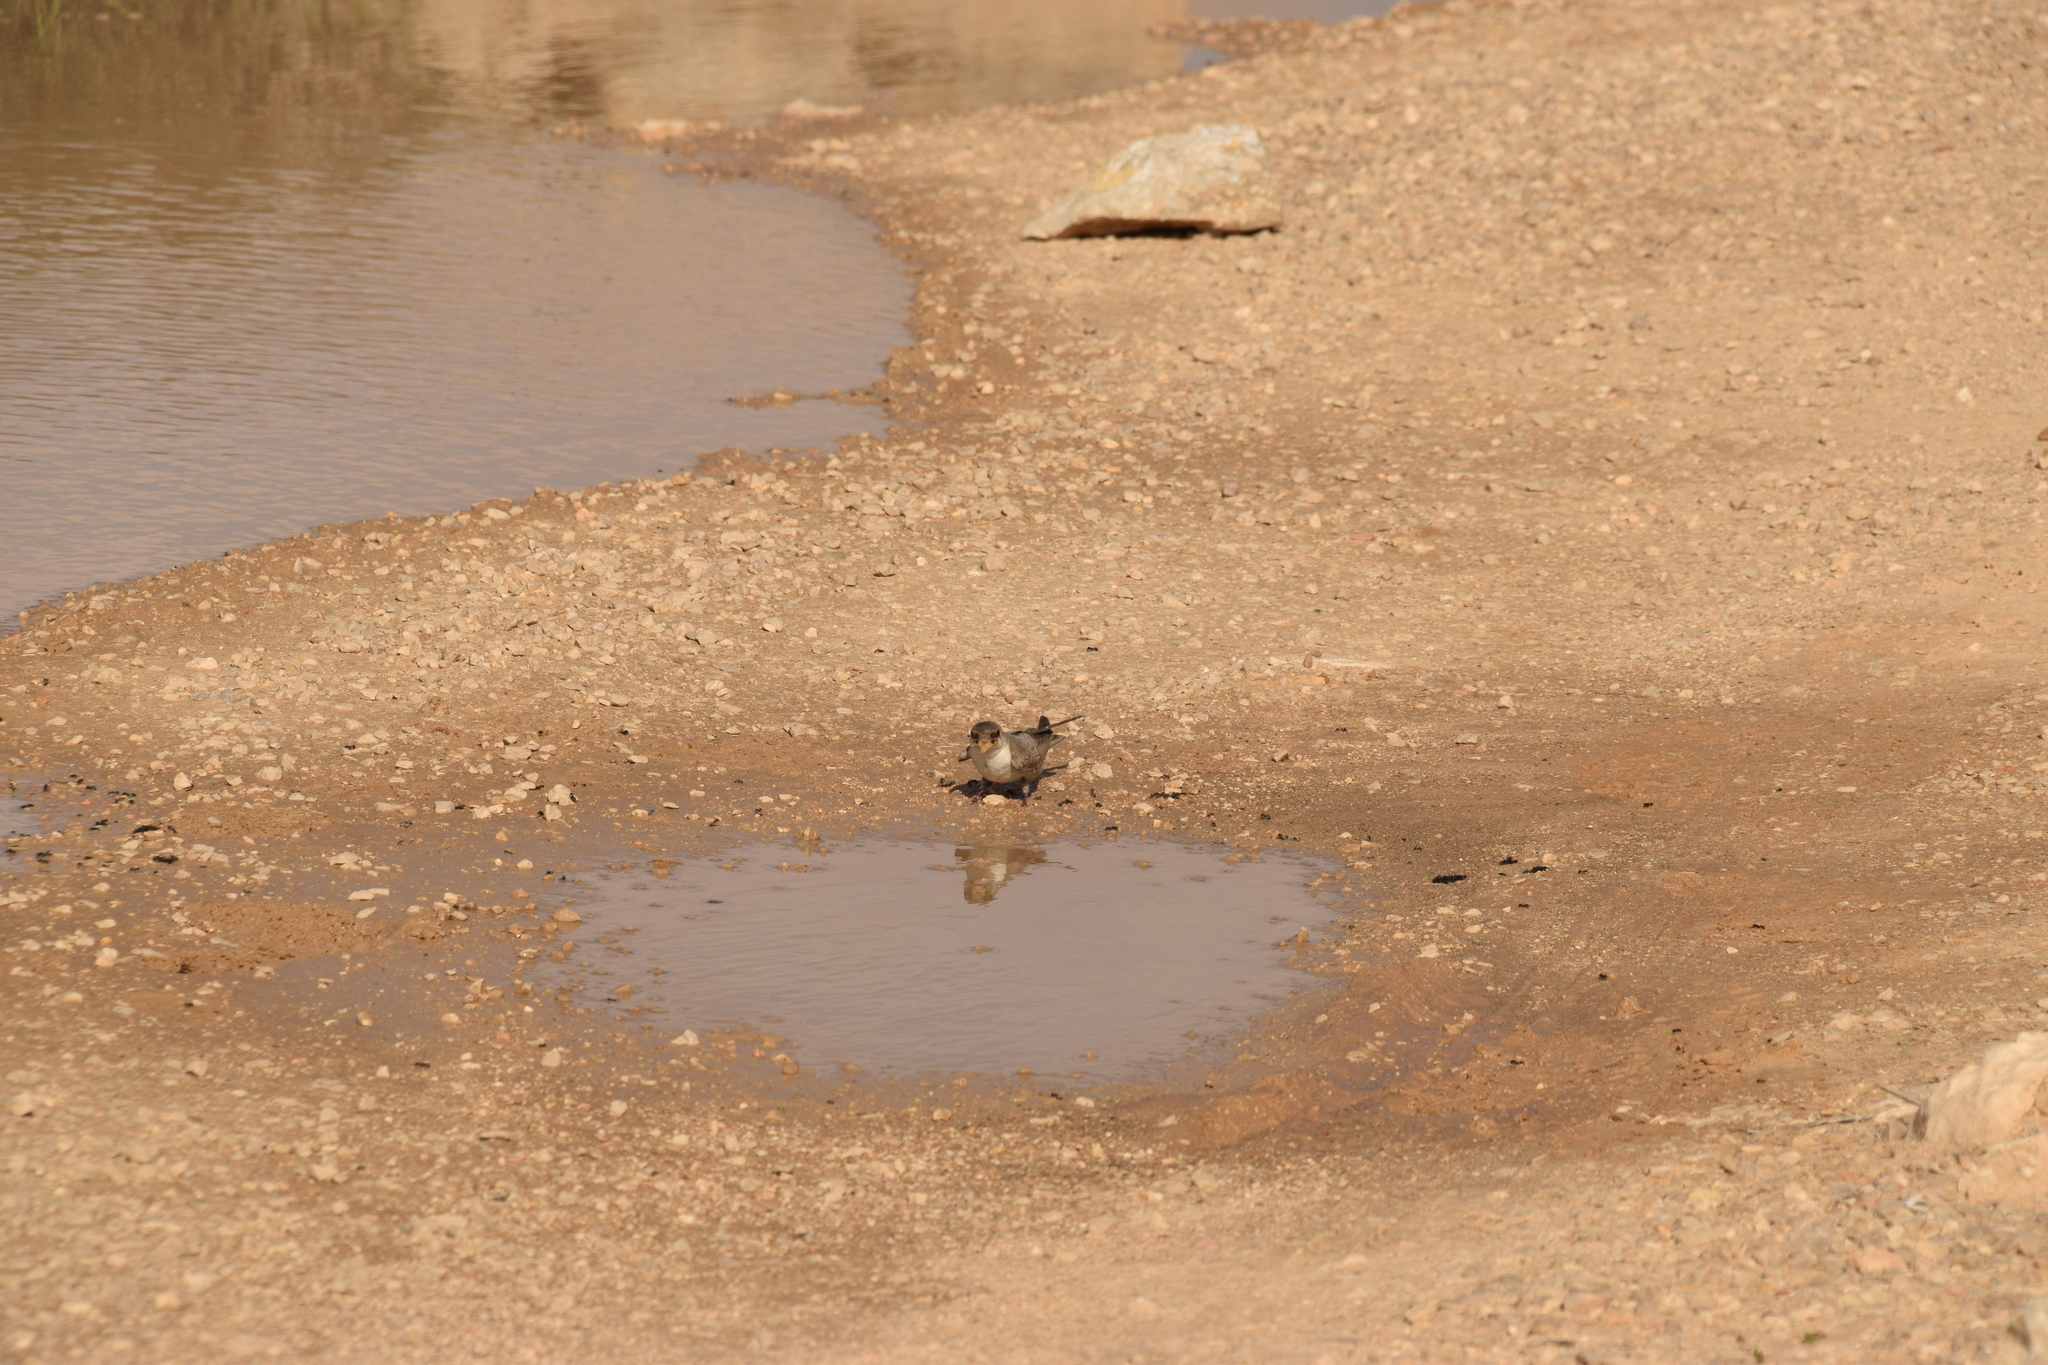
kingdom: Animalia
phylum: Chordata
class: Aves
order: Passeriformes
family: Hirundinidae
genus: Ptyonoprogne
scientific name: Ptyonoprogne fuligula
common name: Rock martin
